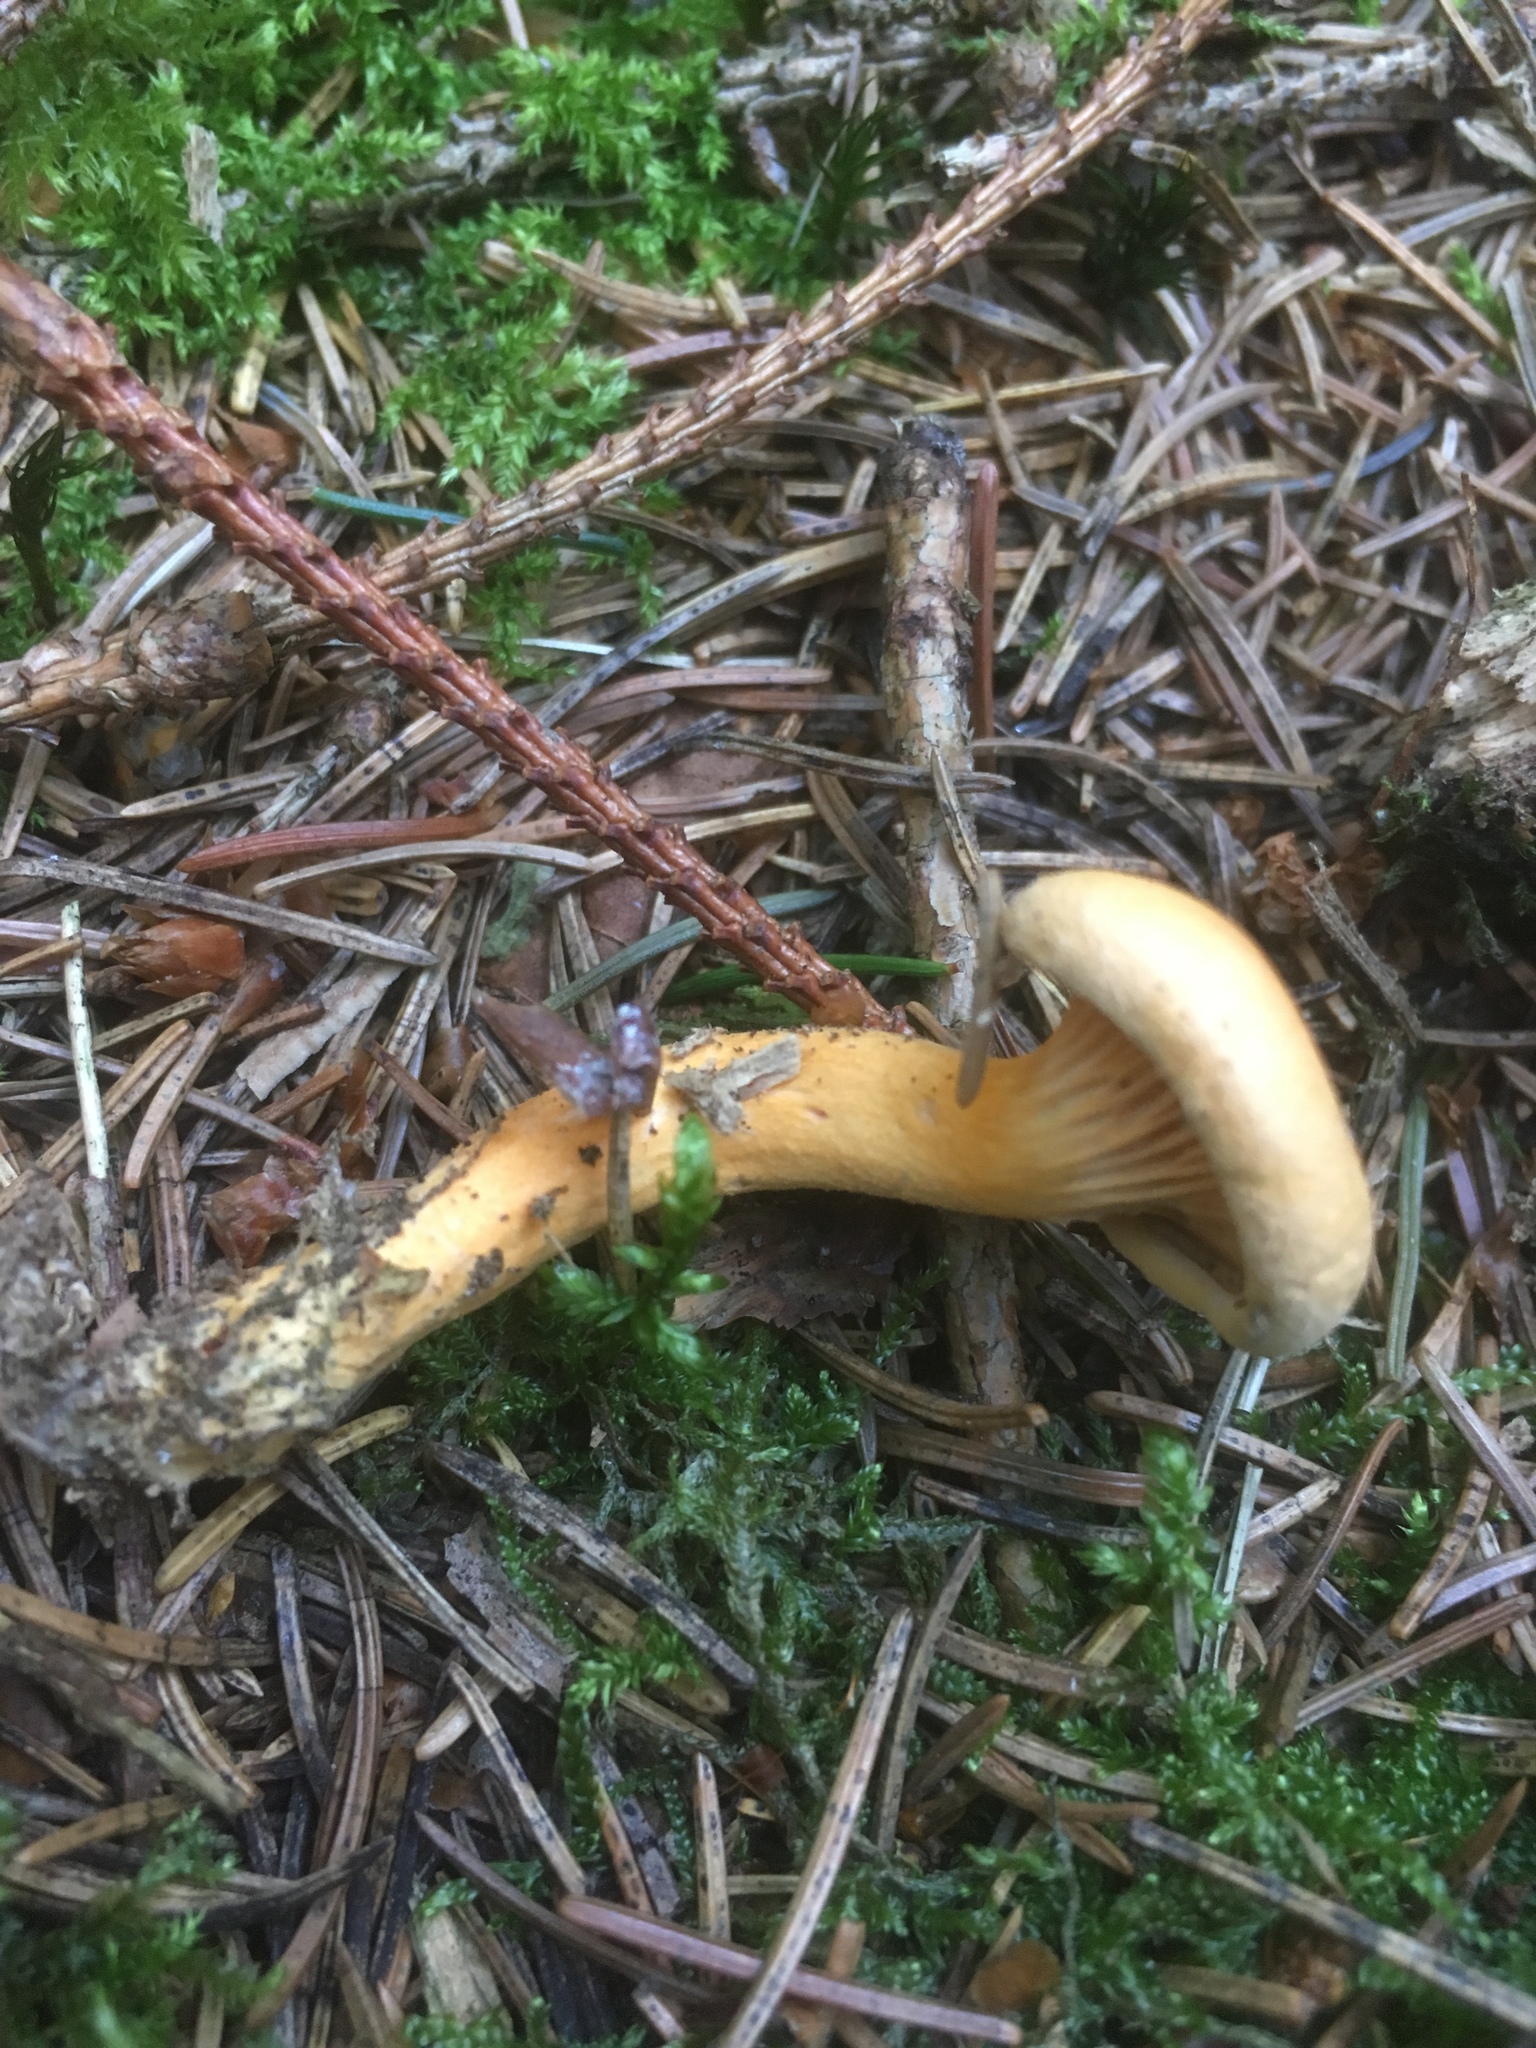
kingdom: Fungi
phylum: Basidiomycota
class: Agaricomycetes
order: Boletales
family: Hygrophoropsidaceae
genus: Hygrophoropsis
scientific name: Hygrophoropsis aurantiaca
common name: False chanterelle
